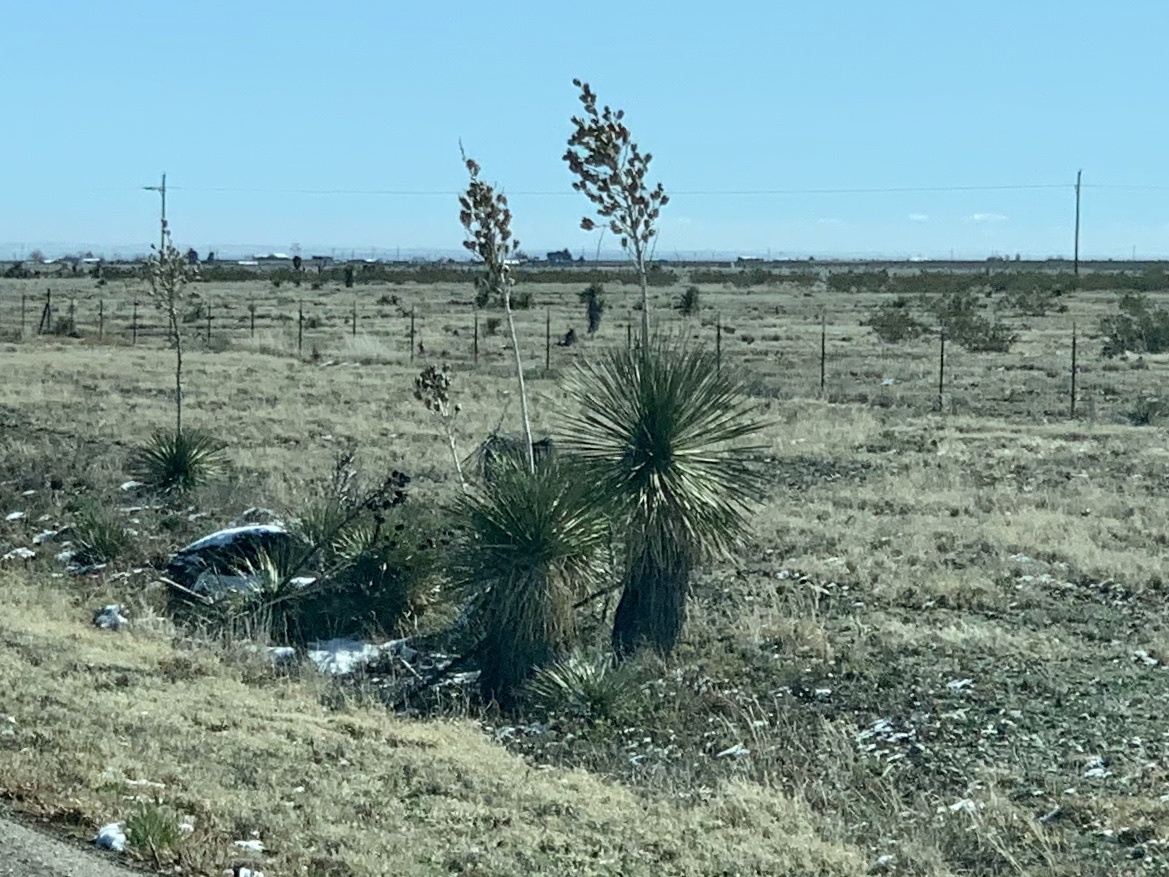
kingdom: Plantae
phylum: Tracheophyta
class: Liliopsida
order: Asparagales
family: Asparagaceae
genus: Yucca
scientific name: Yucca elata
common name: Palmella
